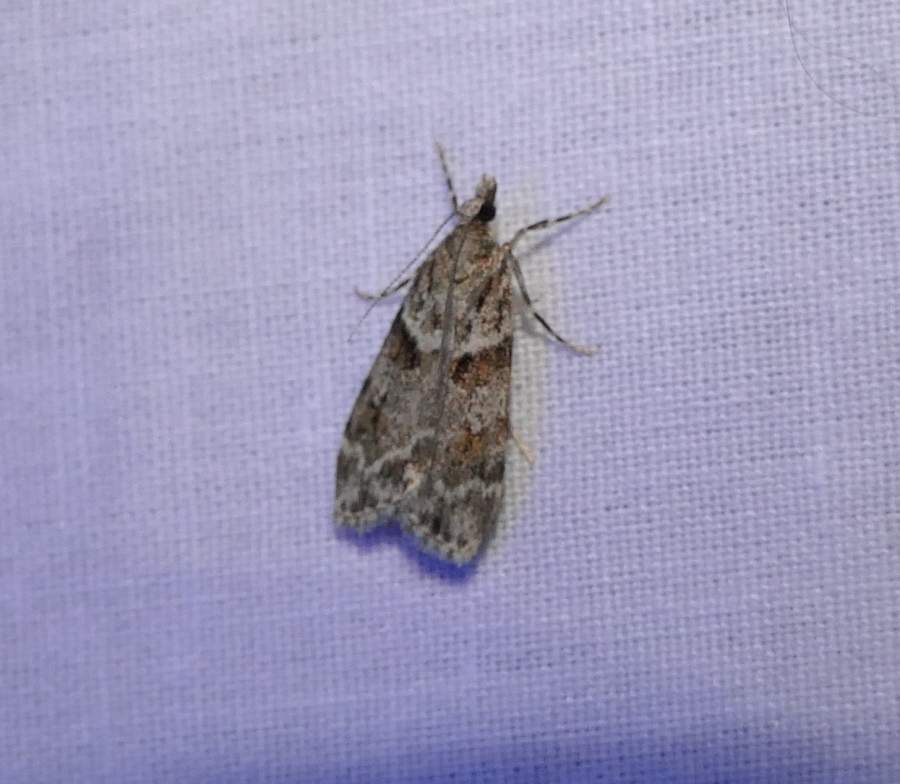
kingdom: Animalia
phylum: Arthropoda
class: Insecta
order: Lepidoptera
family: Crambidae
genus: Scoparia
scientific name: Scoparia biplagialis
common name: Double-striped scoparia moth
